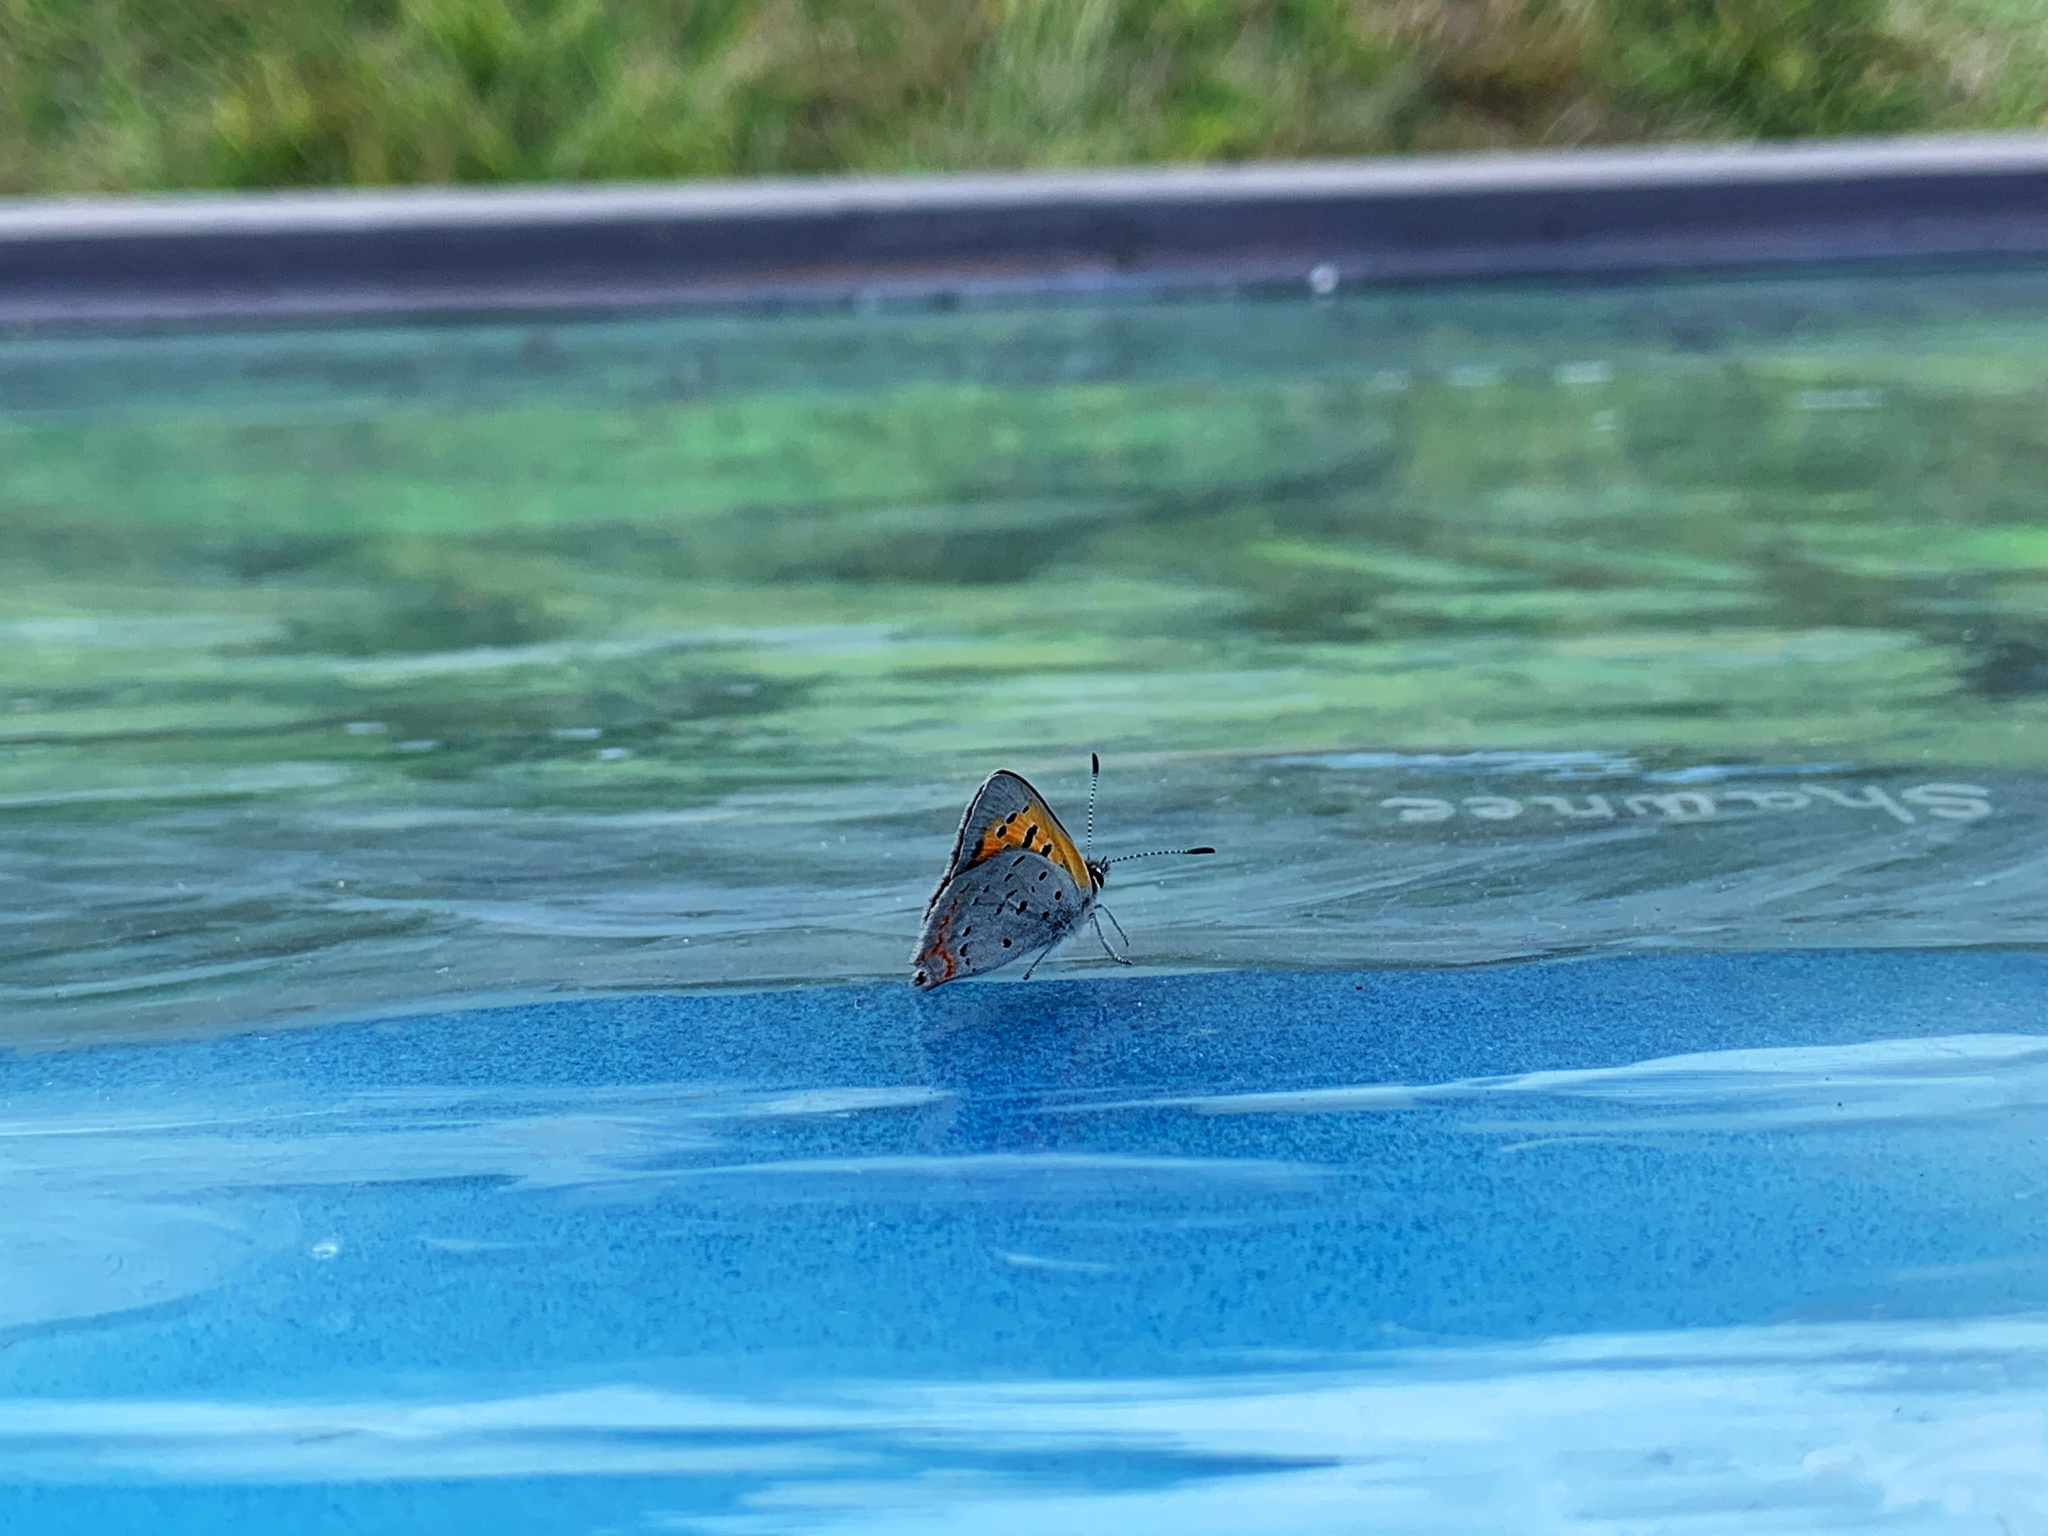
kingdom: Animalia
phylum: Arthropoda
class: Insecta
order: Lepidoptera
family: Lycaenidae
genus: Lycaena
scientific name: Lycaena hypophlaeas
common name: American copper
